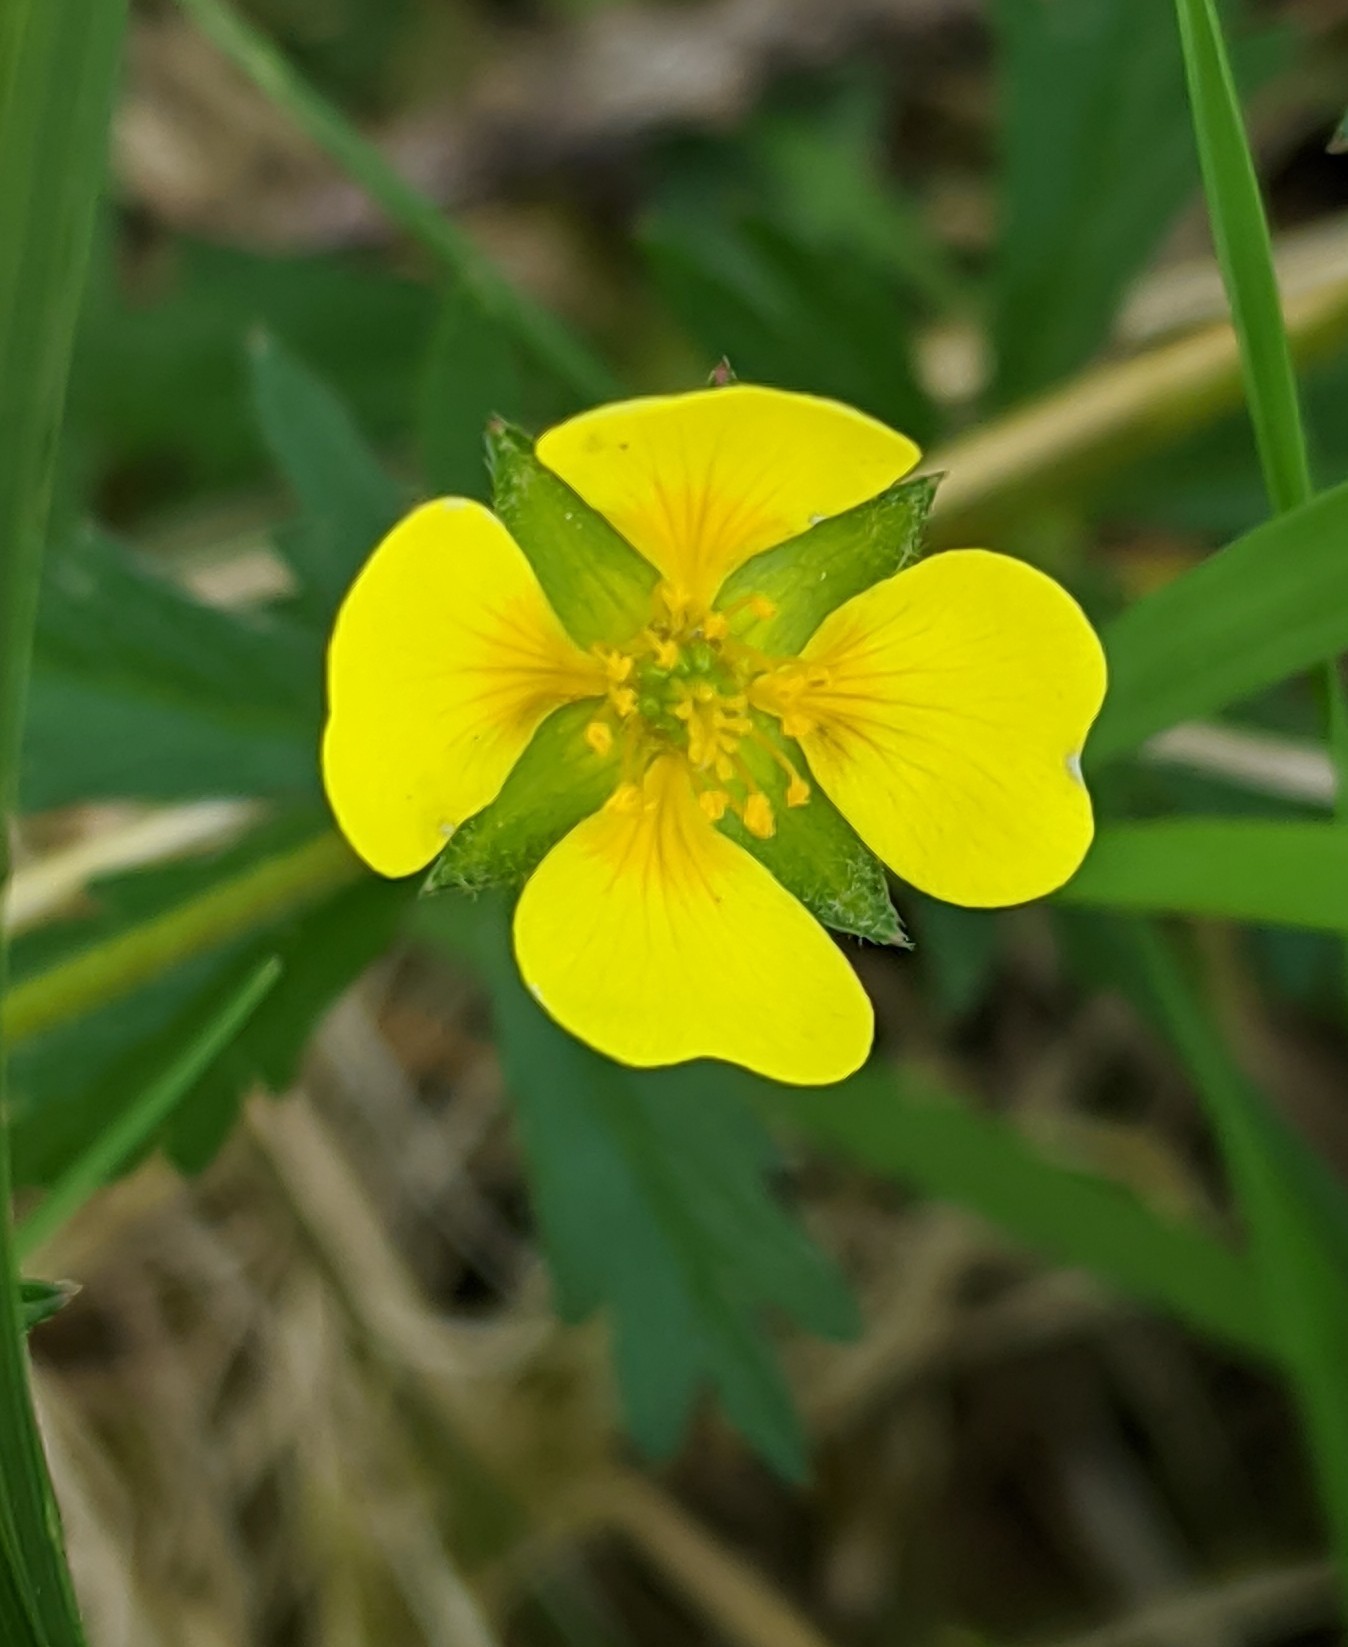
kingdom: Plantae
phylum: Tracheophyta
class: Magnoliopsida
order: Rosales
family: Rosaceae
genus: Potentilla
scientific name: Potentilla erecta
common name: Tormentil
